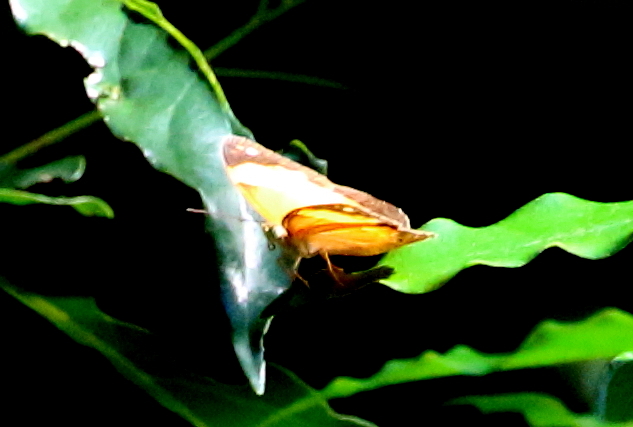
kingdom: Animalia
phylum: Arthropoda
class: Insecta
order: Lepidoptera
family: Nymphalidae
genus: Cupha
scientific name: Cupha prosope
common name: Bordered rustic
